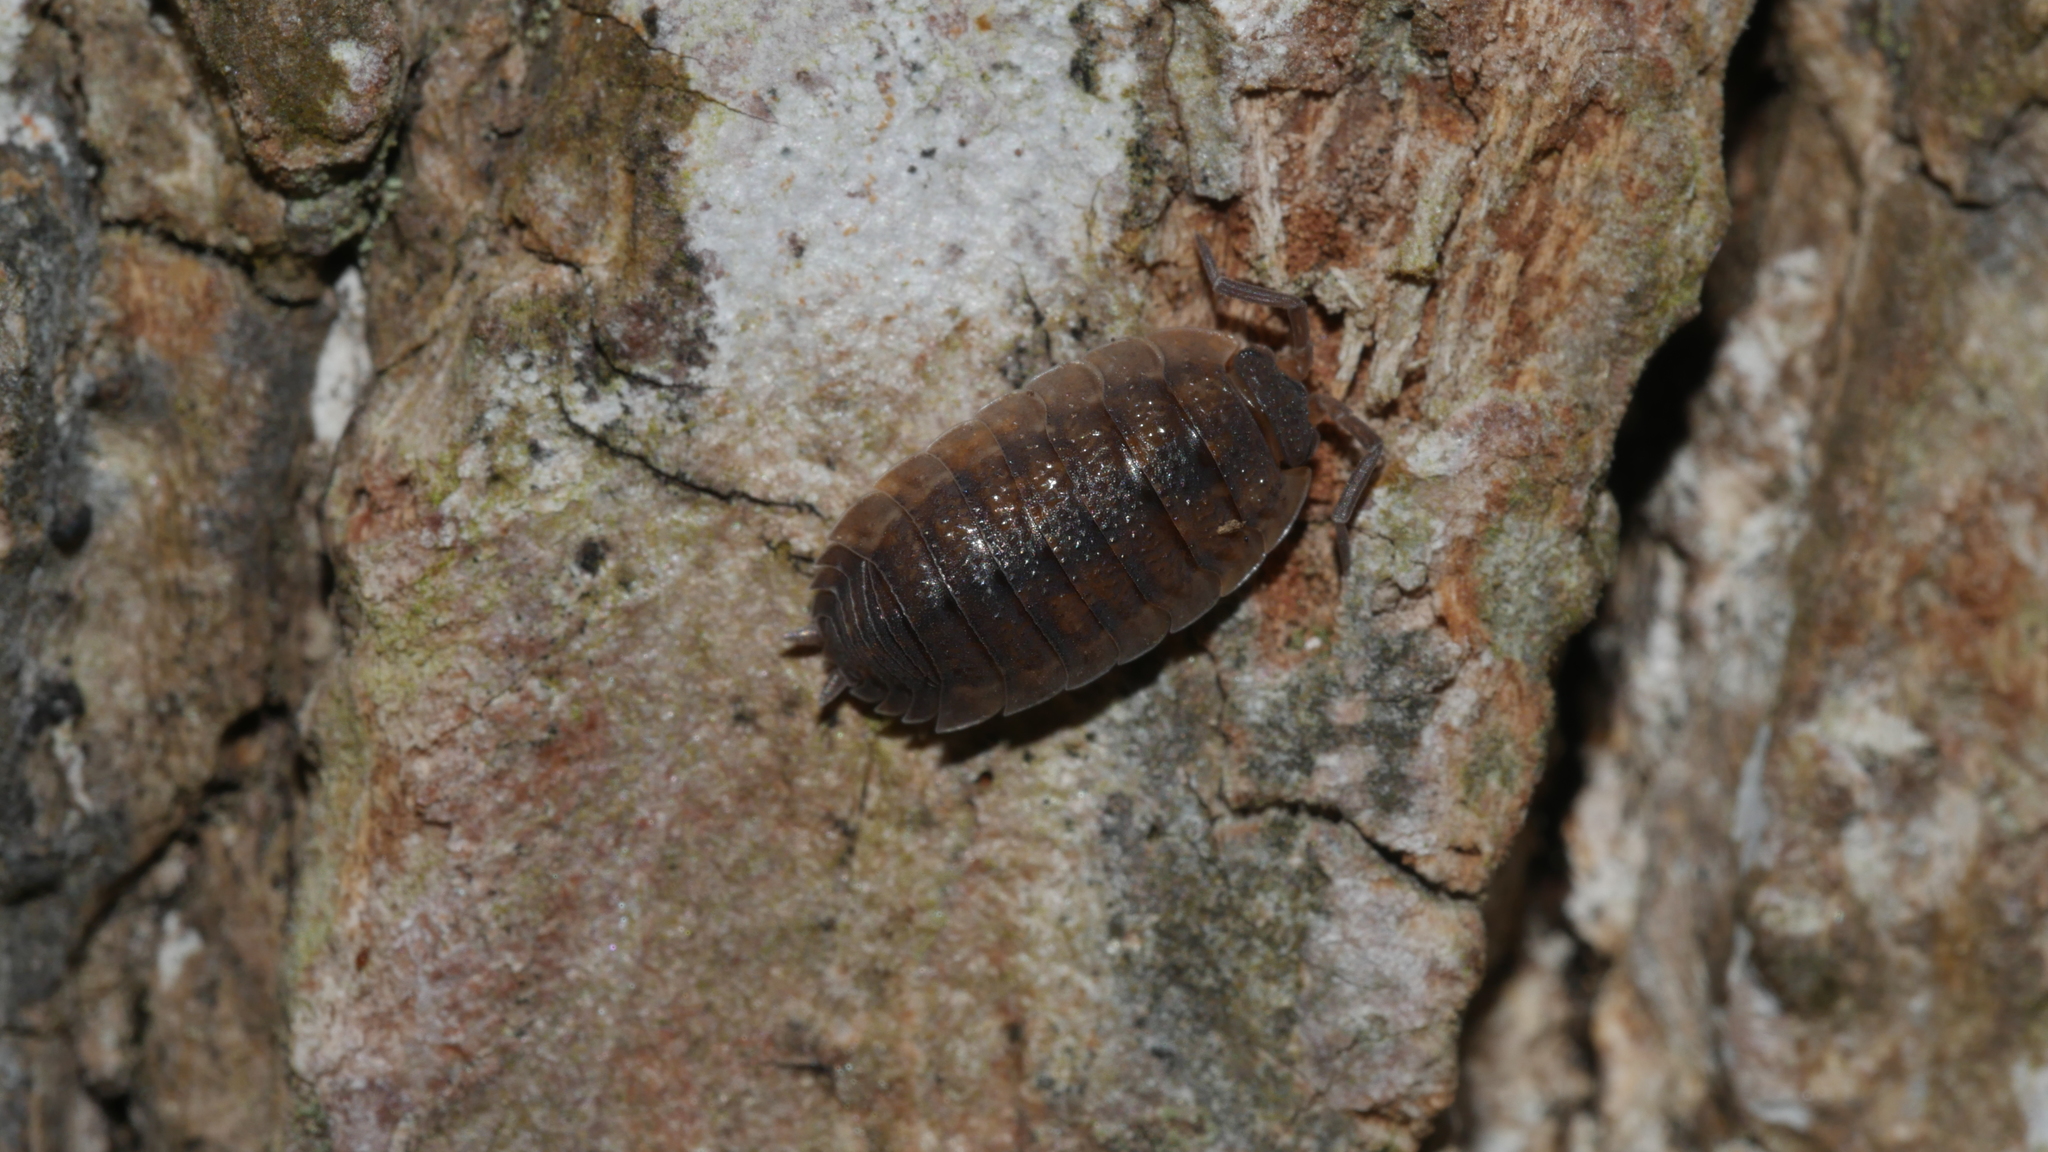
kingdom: Animalia
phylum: Arthropoda
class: Malacostraca
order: Isopoda
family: Porcellionidae
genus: Porcellio
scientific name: Porcellio scaber
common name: Common rough woodlouse
